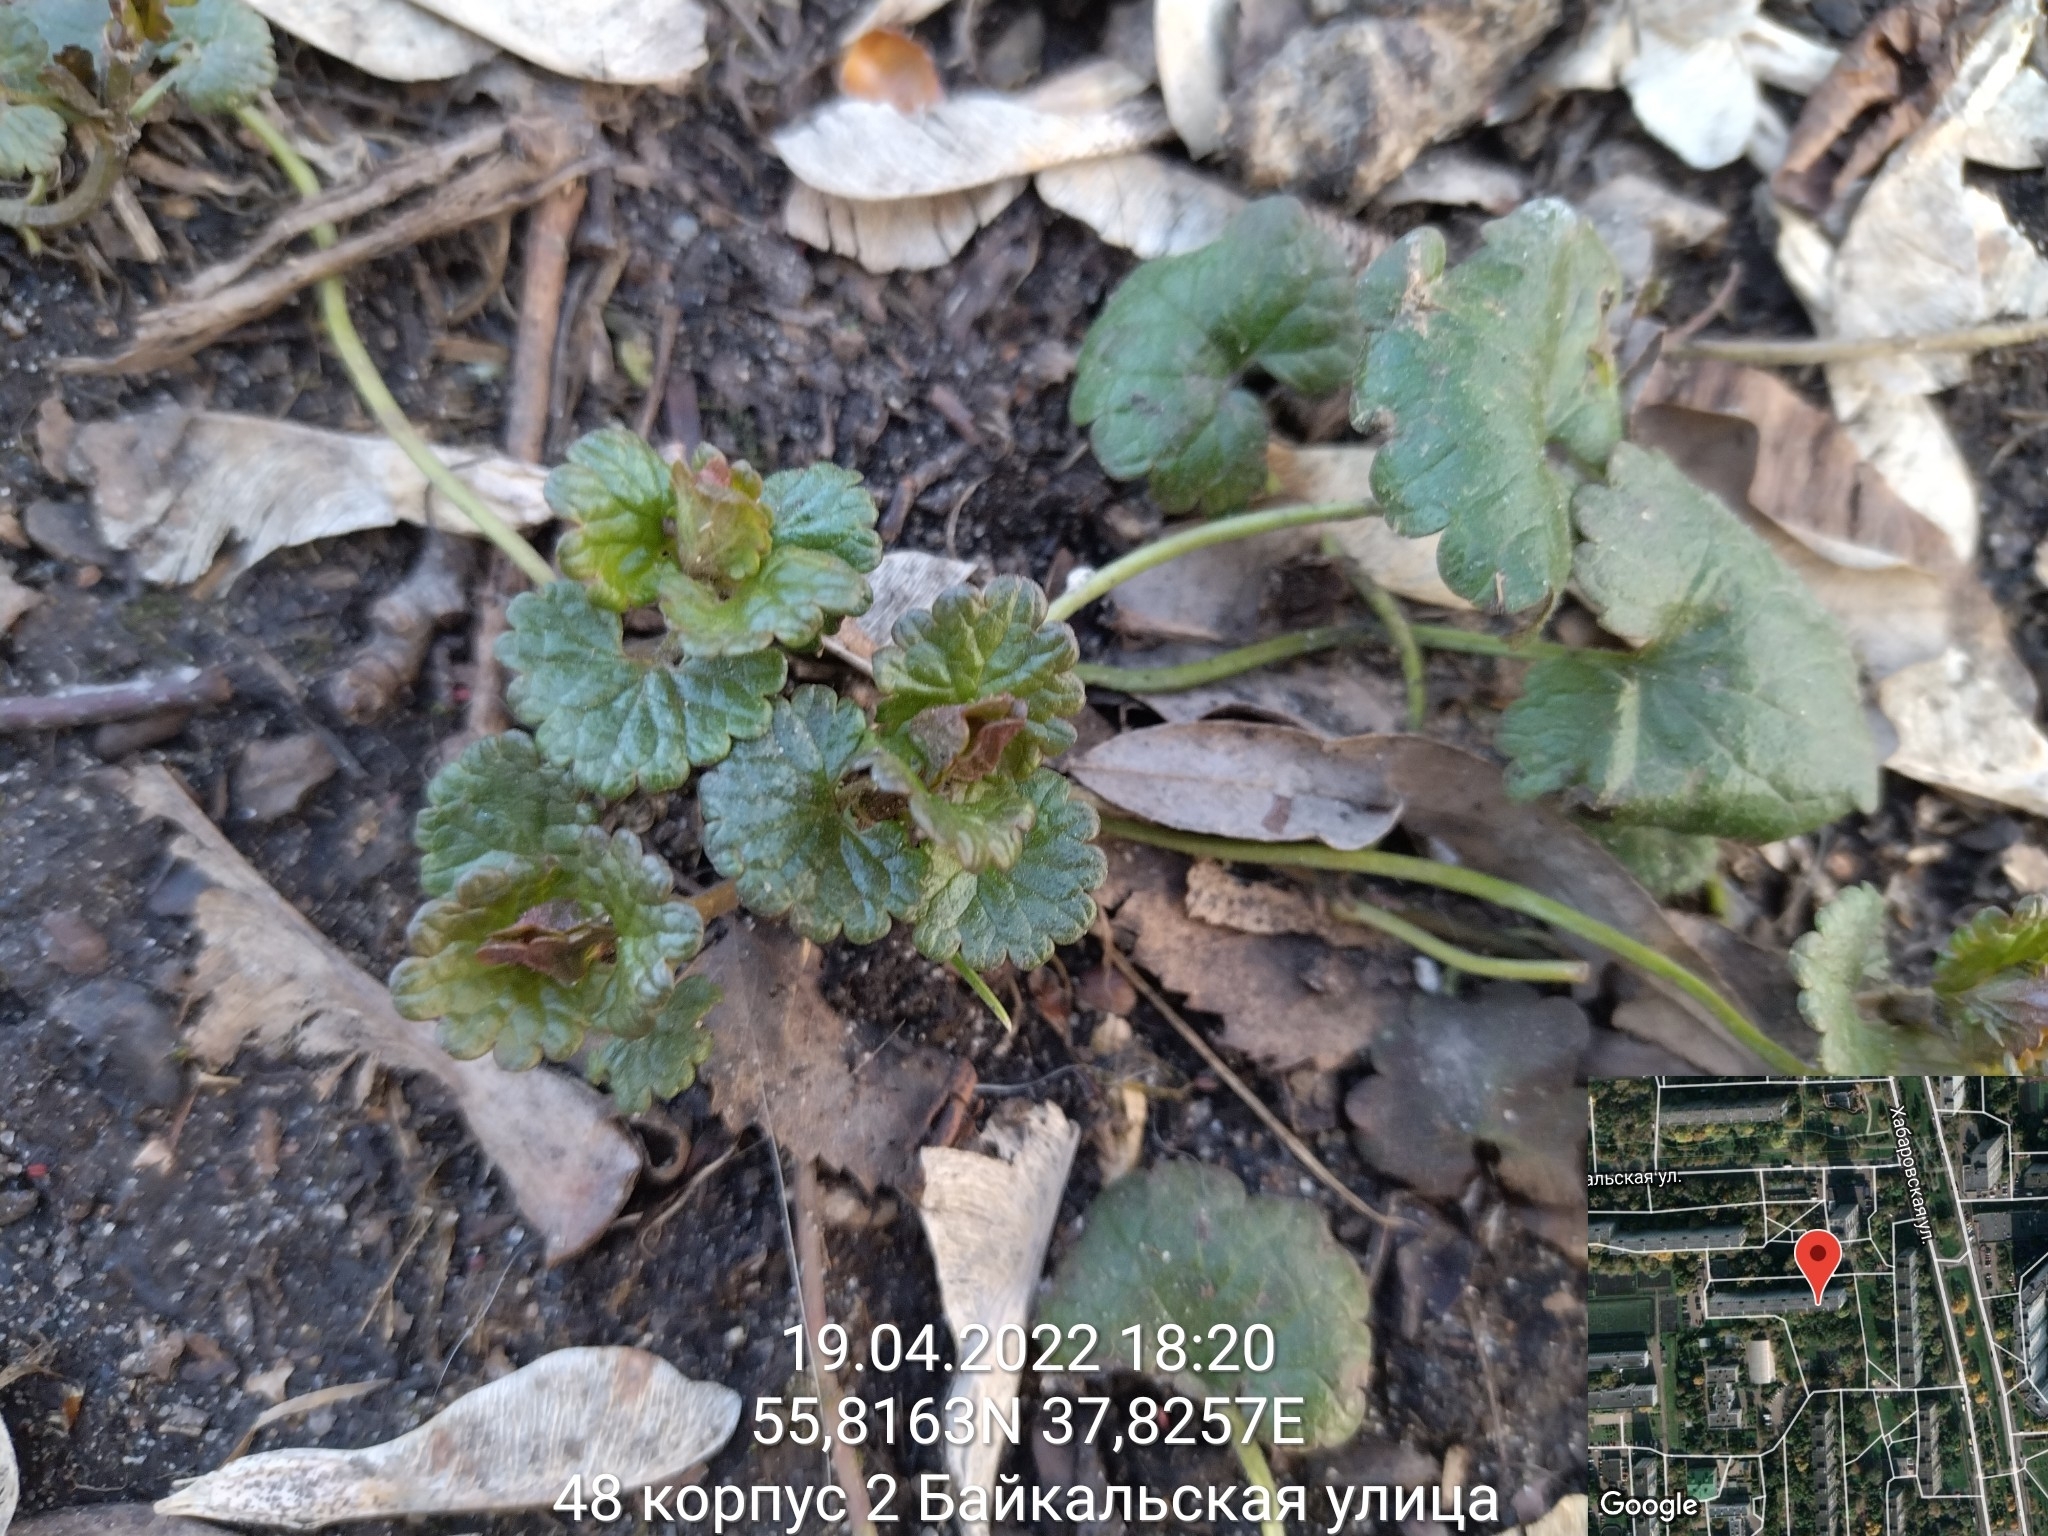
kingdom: Plantae
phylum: Tracheophyta
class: Magnoliopsida
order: Lamiales
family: Lamiaceae
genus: Glechoma
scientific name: Glechoma hederacea
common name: Ground ivy
